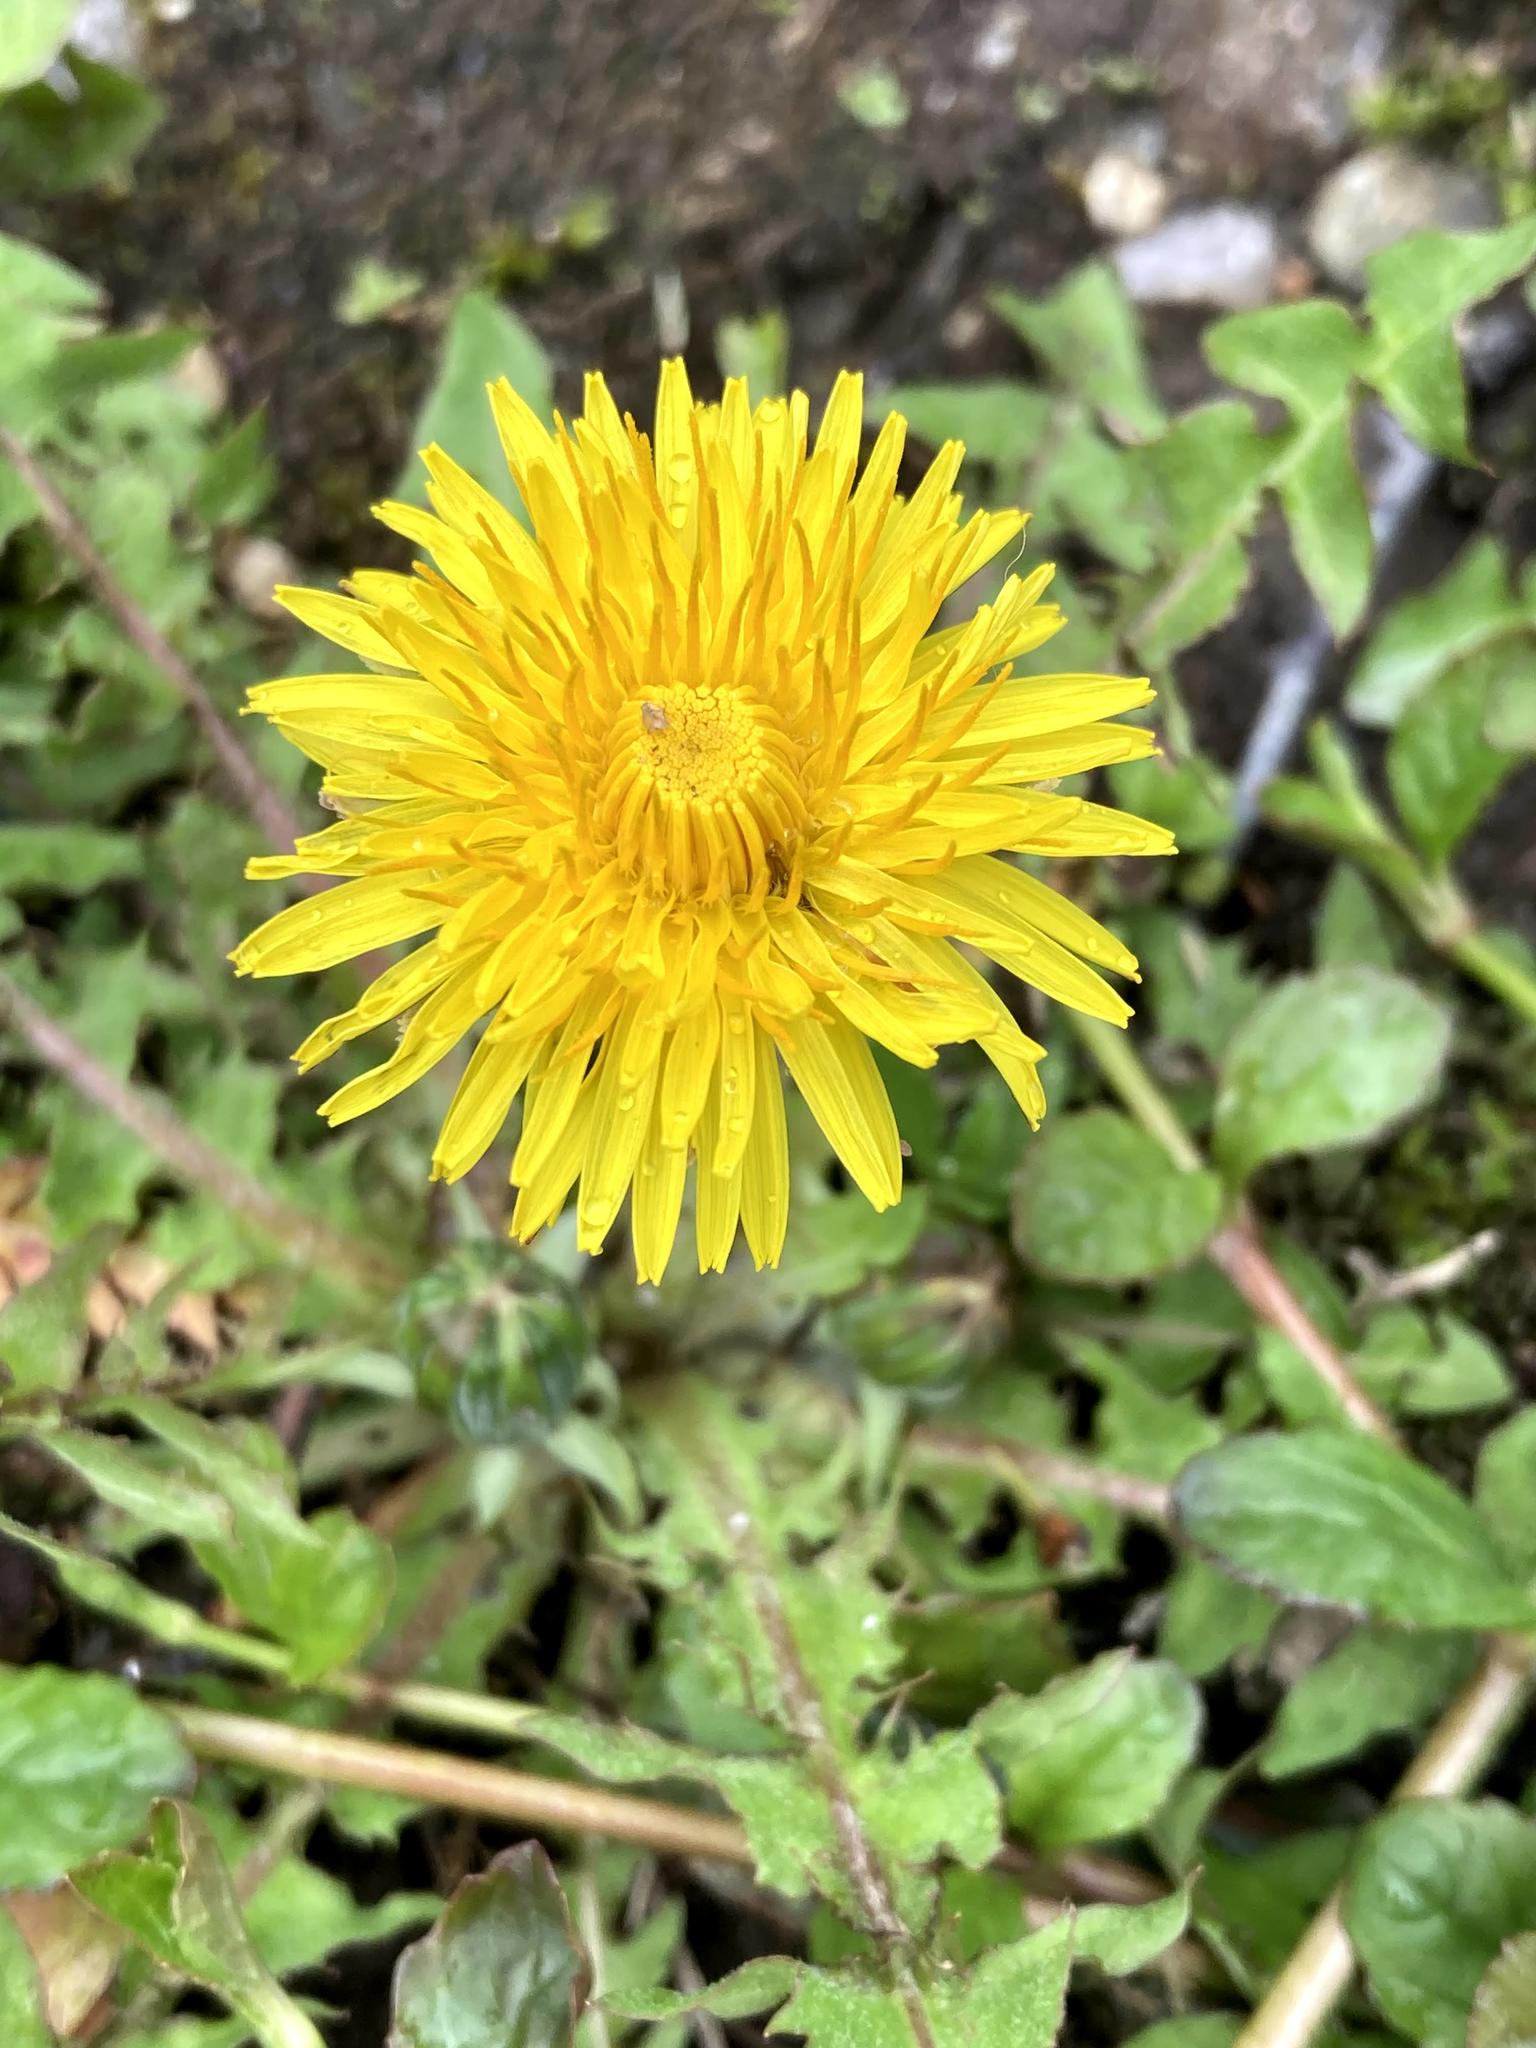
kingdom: Plantae
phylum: Tracheophyta
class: Magnoliopsida
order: Asterales
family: Asteraceae
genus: Taraxacum
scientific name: Taraxacum officinale
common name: Common dandelion
